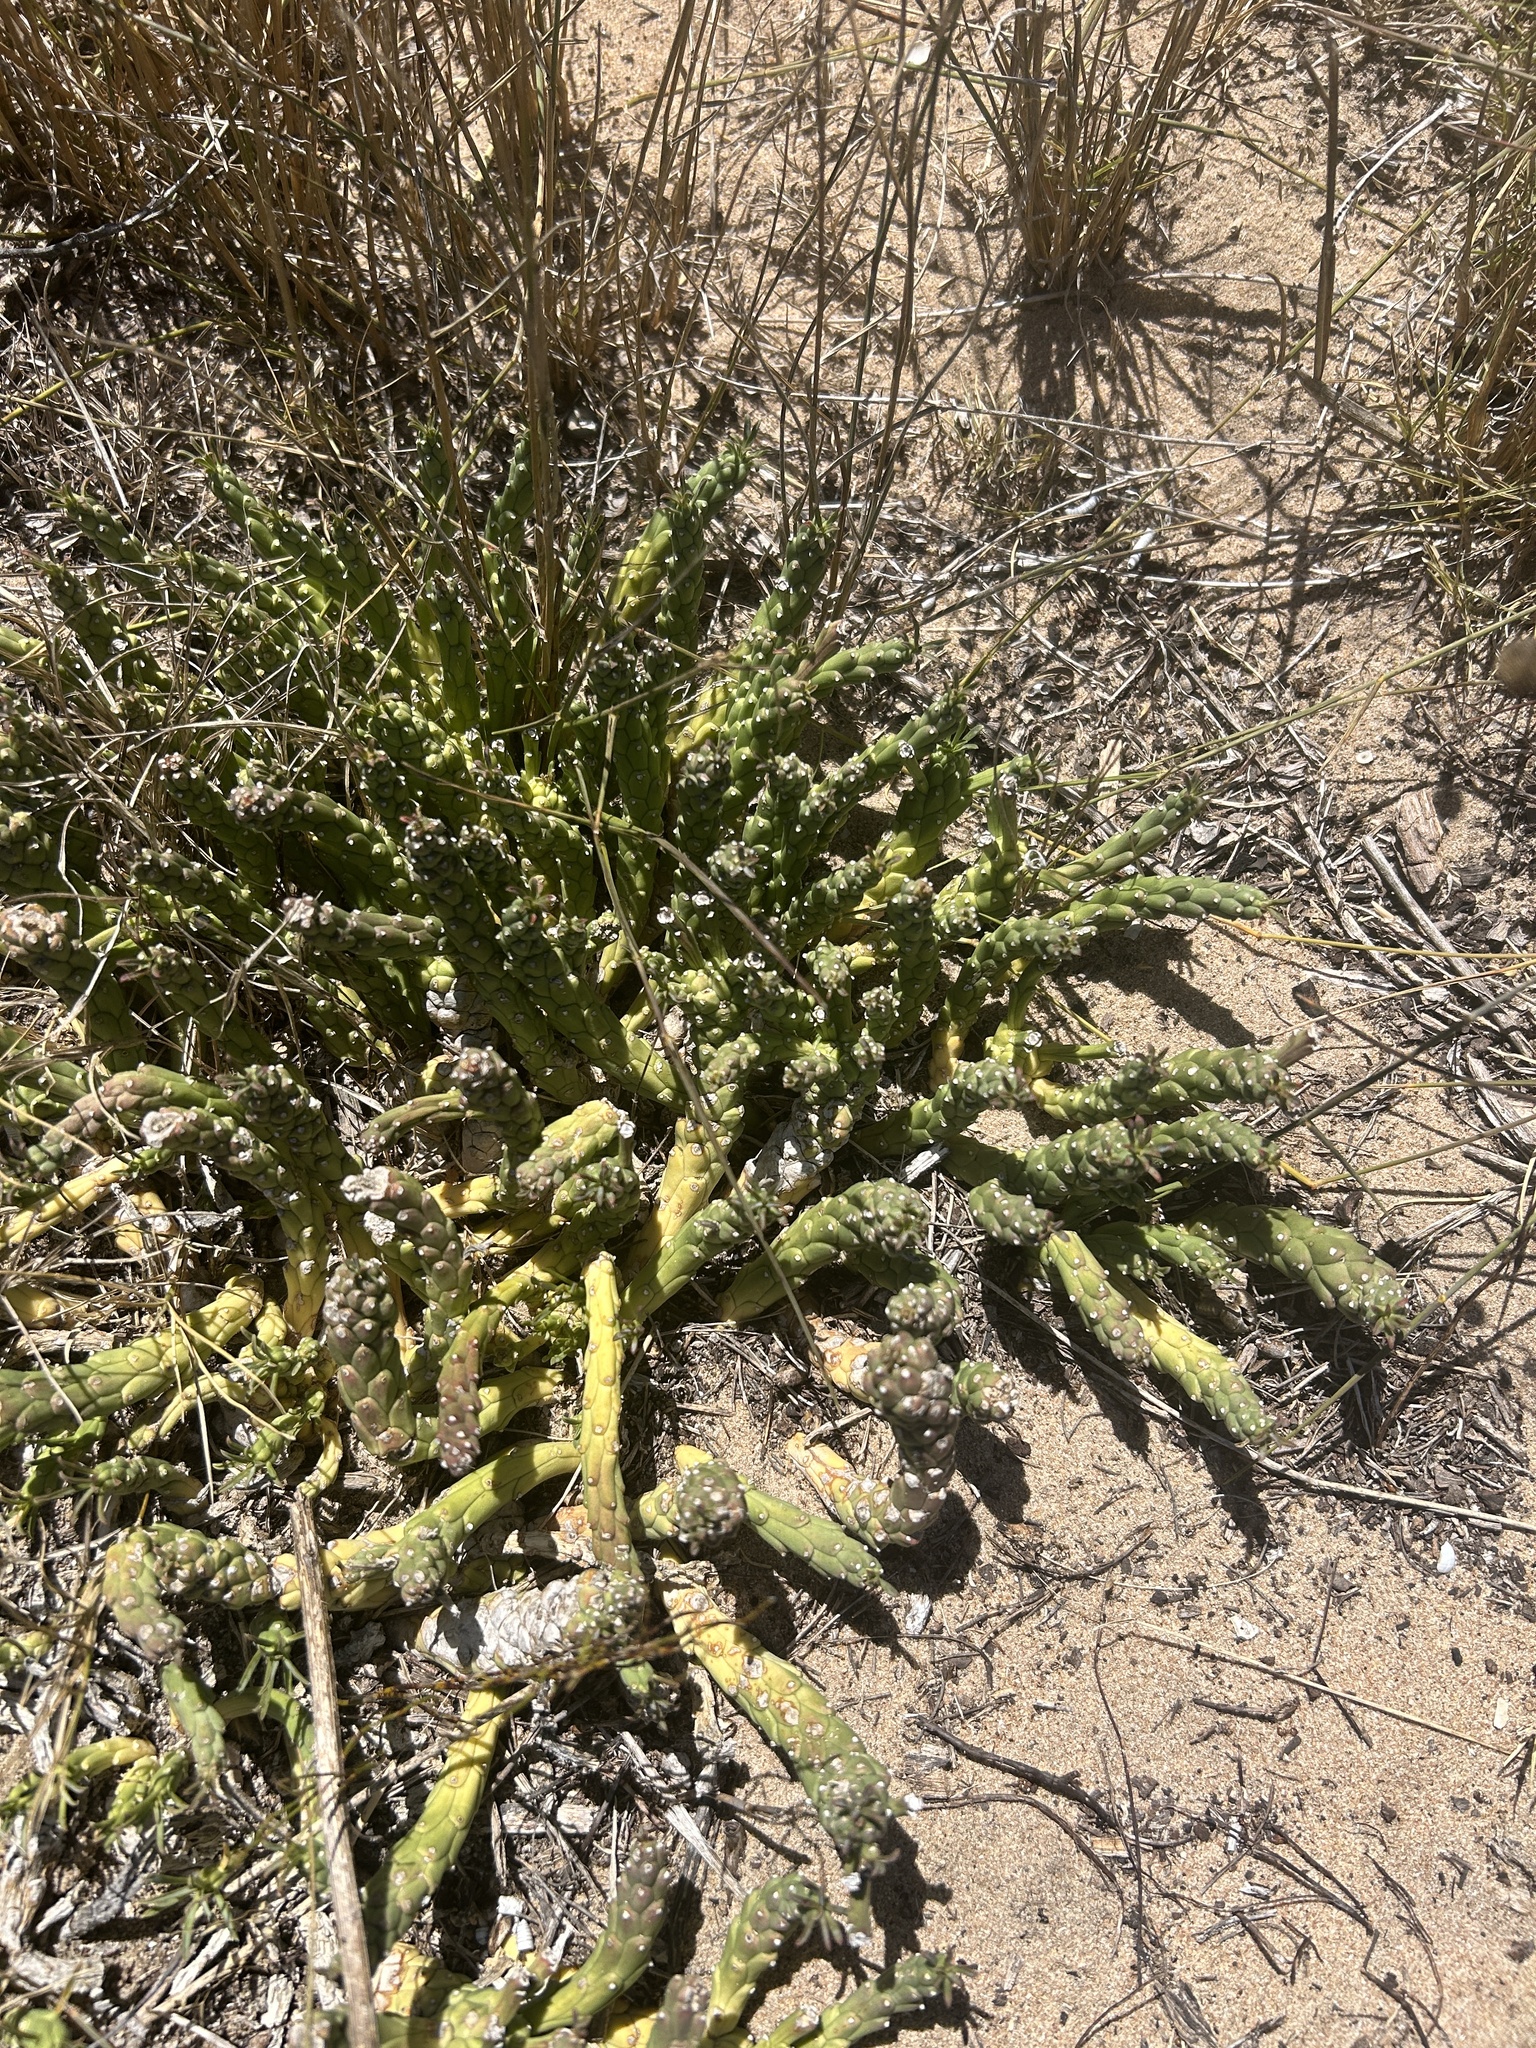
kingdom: Plantae
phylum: Tracheophyta
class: Magnoliopsida
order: Malpighiales
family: Euphorbiaceae
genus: Euphorbia
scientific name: Euphorbia caput-medusae
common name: Medusa's-head
